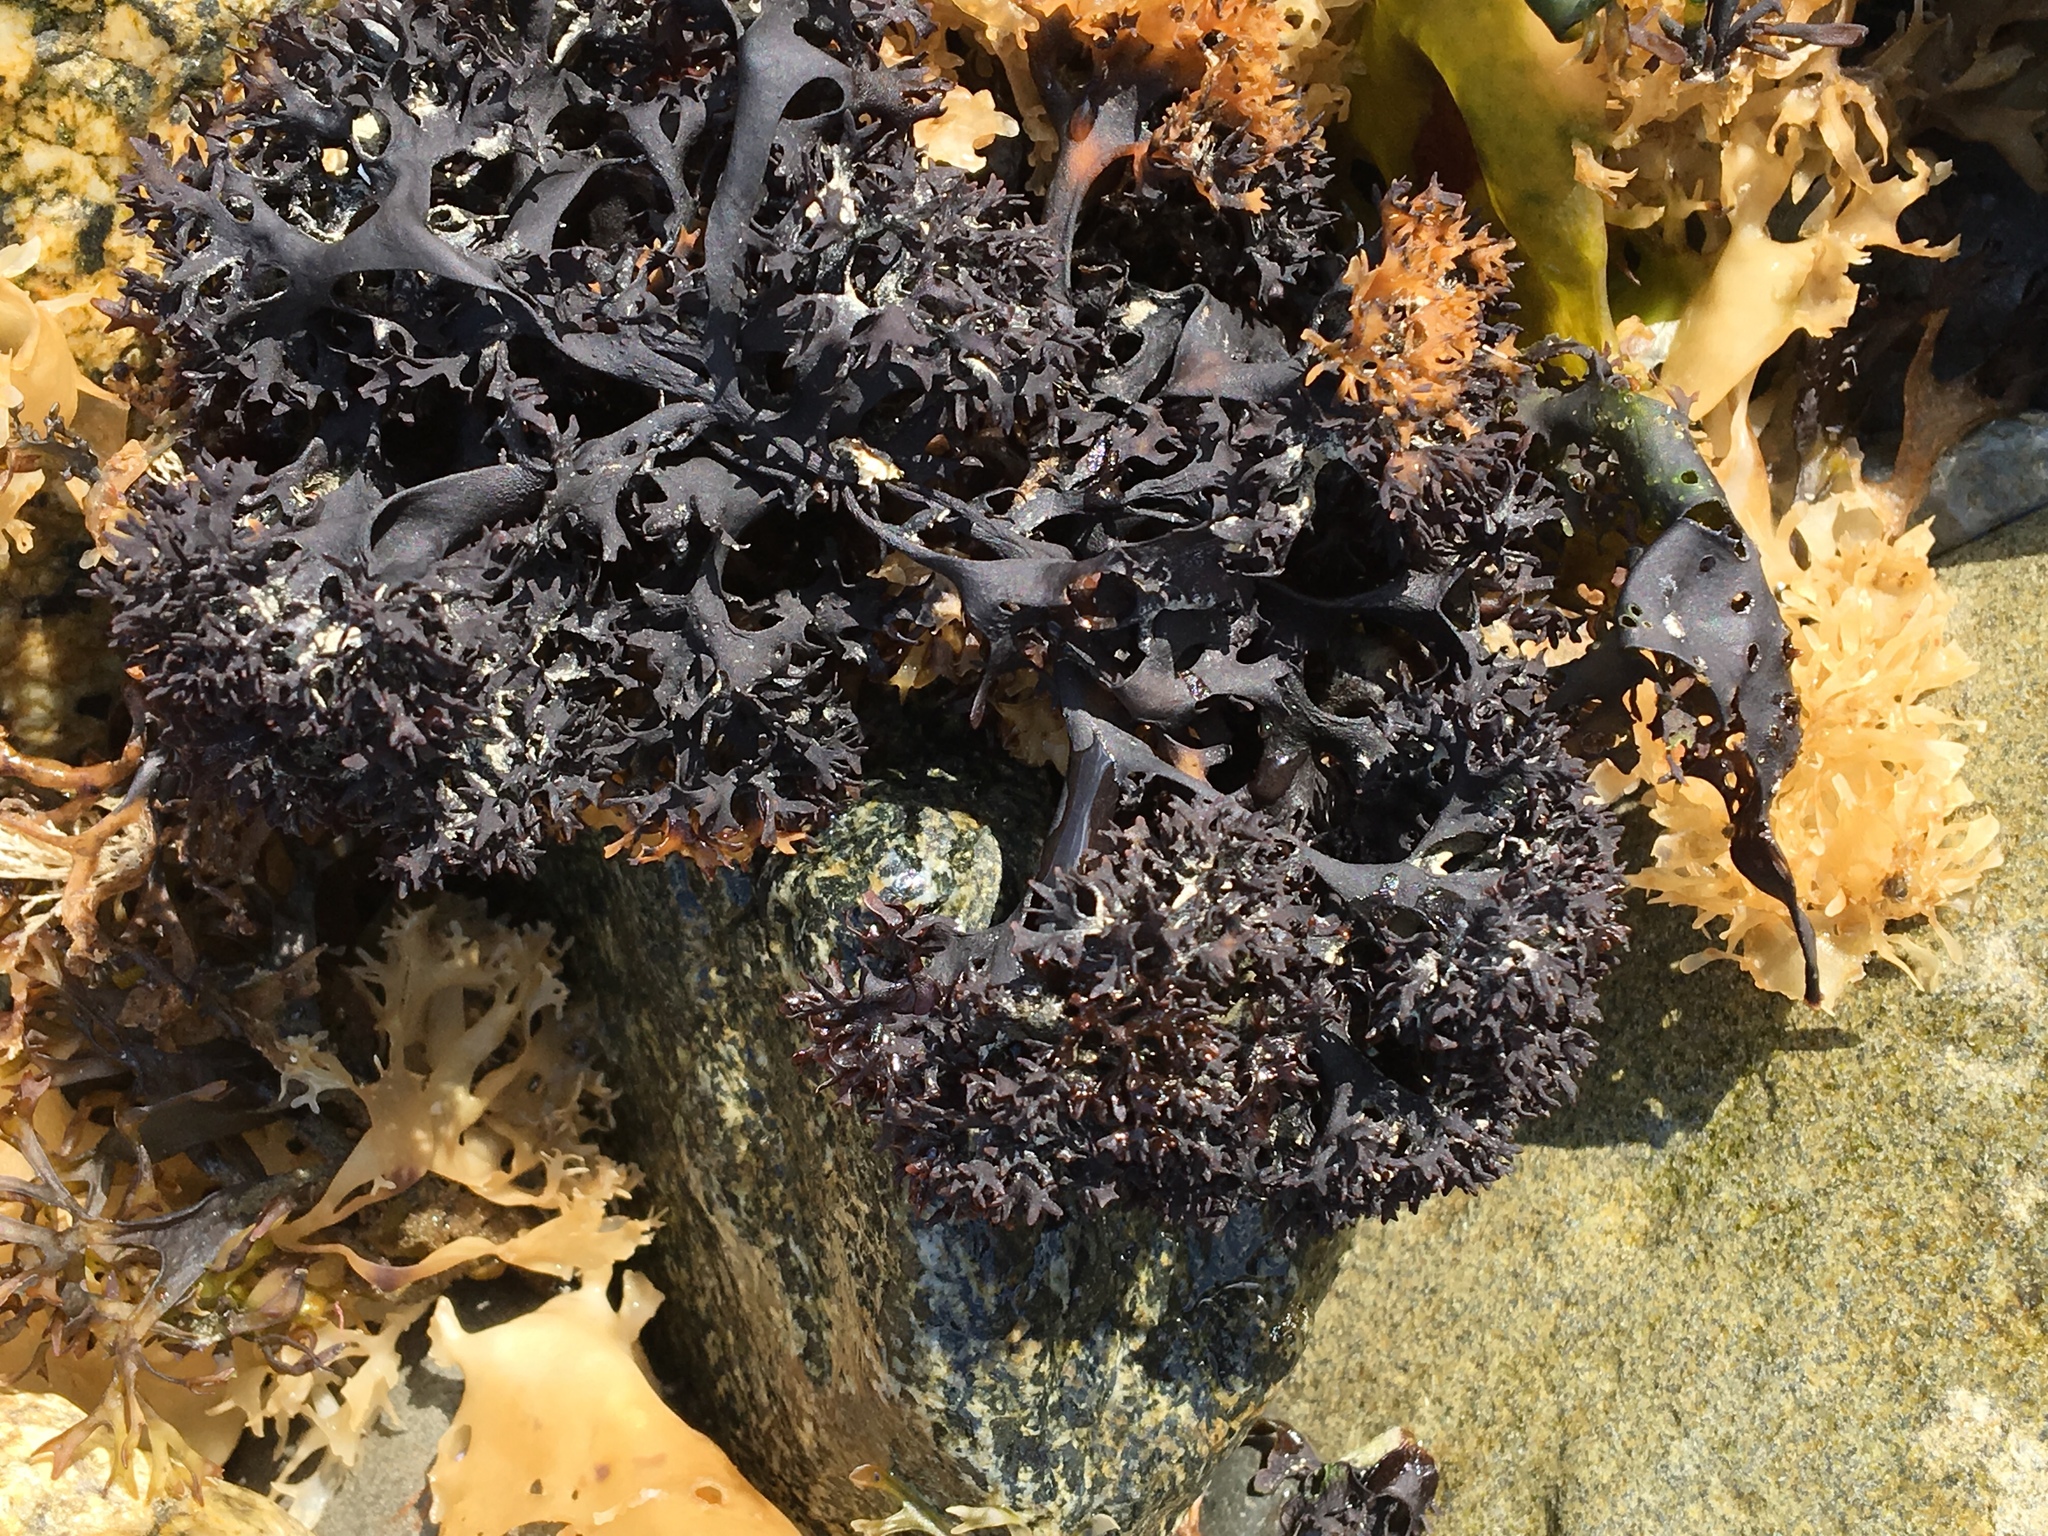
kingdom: Plantae
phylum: Rhodophyta
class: Florideophyceae
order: Gigartinales
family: Gigartinaceae
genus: Chondrus
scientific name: Chondrus crispus
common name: Carrageen
